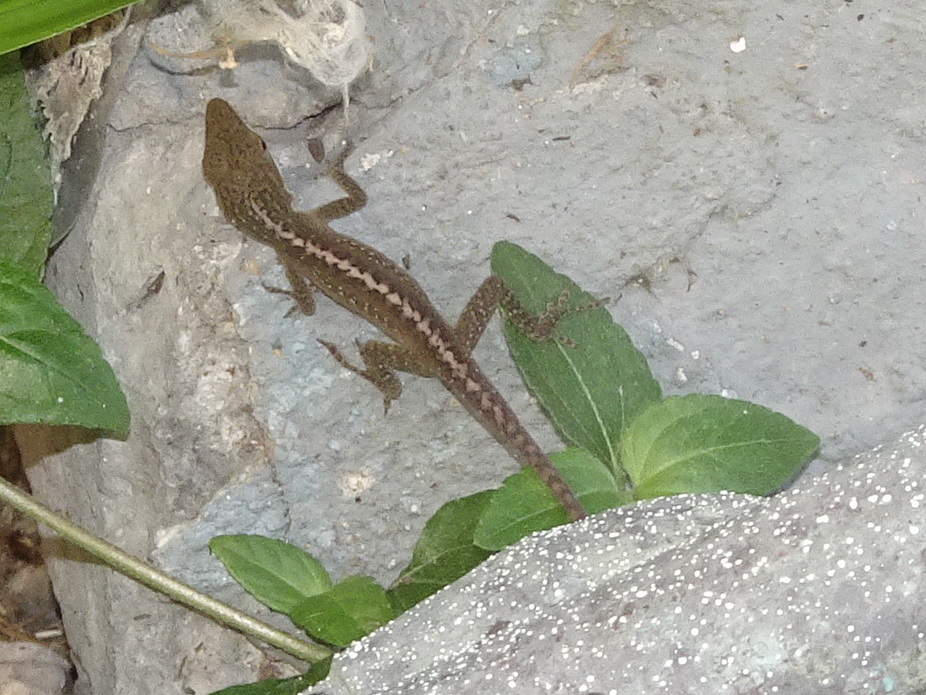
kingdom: Animalia
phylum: Chordata
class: Squamata
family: Dactyloidae
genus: Anolis
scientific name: Anolis carolinensis
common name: Green anole
